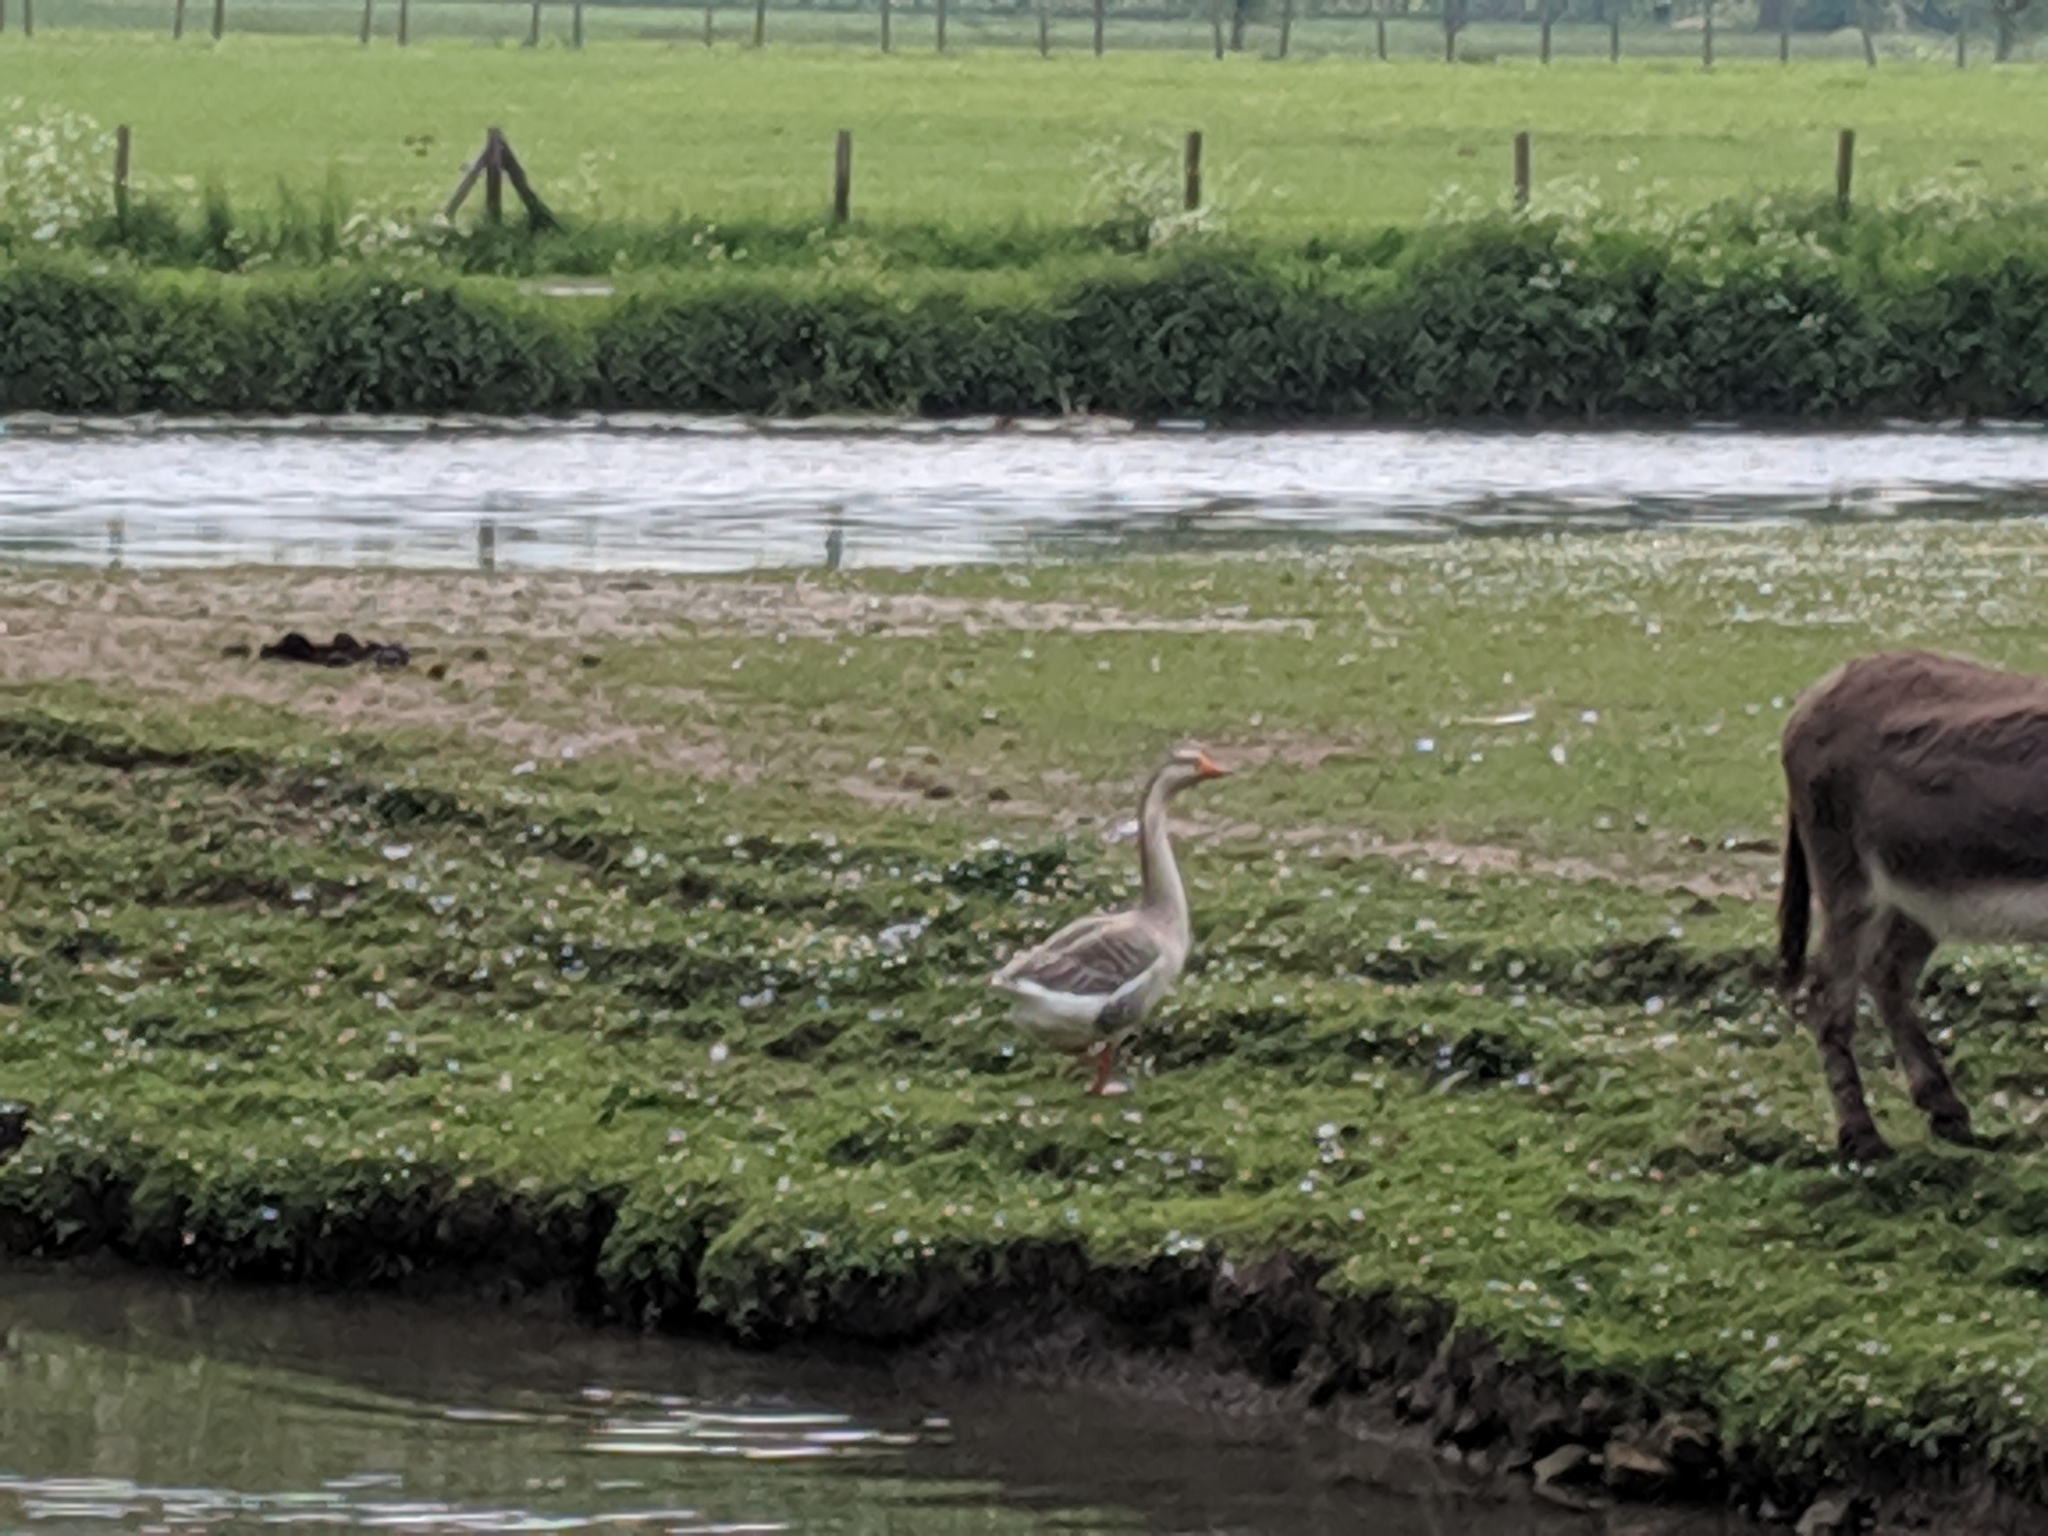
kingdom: Animalia
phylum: Chordata
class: Aves
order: Anseriformes
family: Anatidae
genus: Anser
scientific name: Anser anser
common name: Greylag goose
